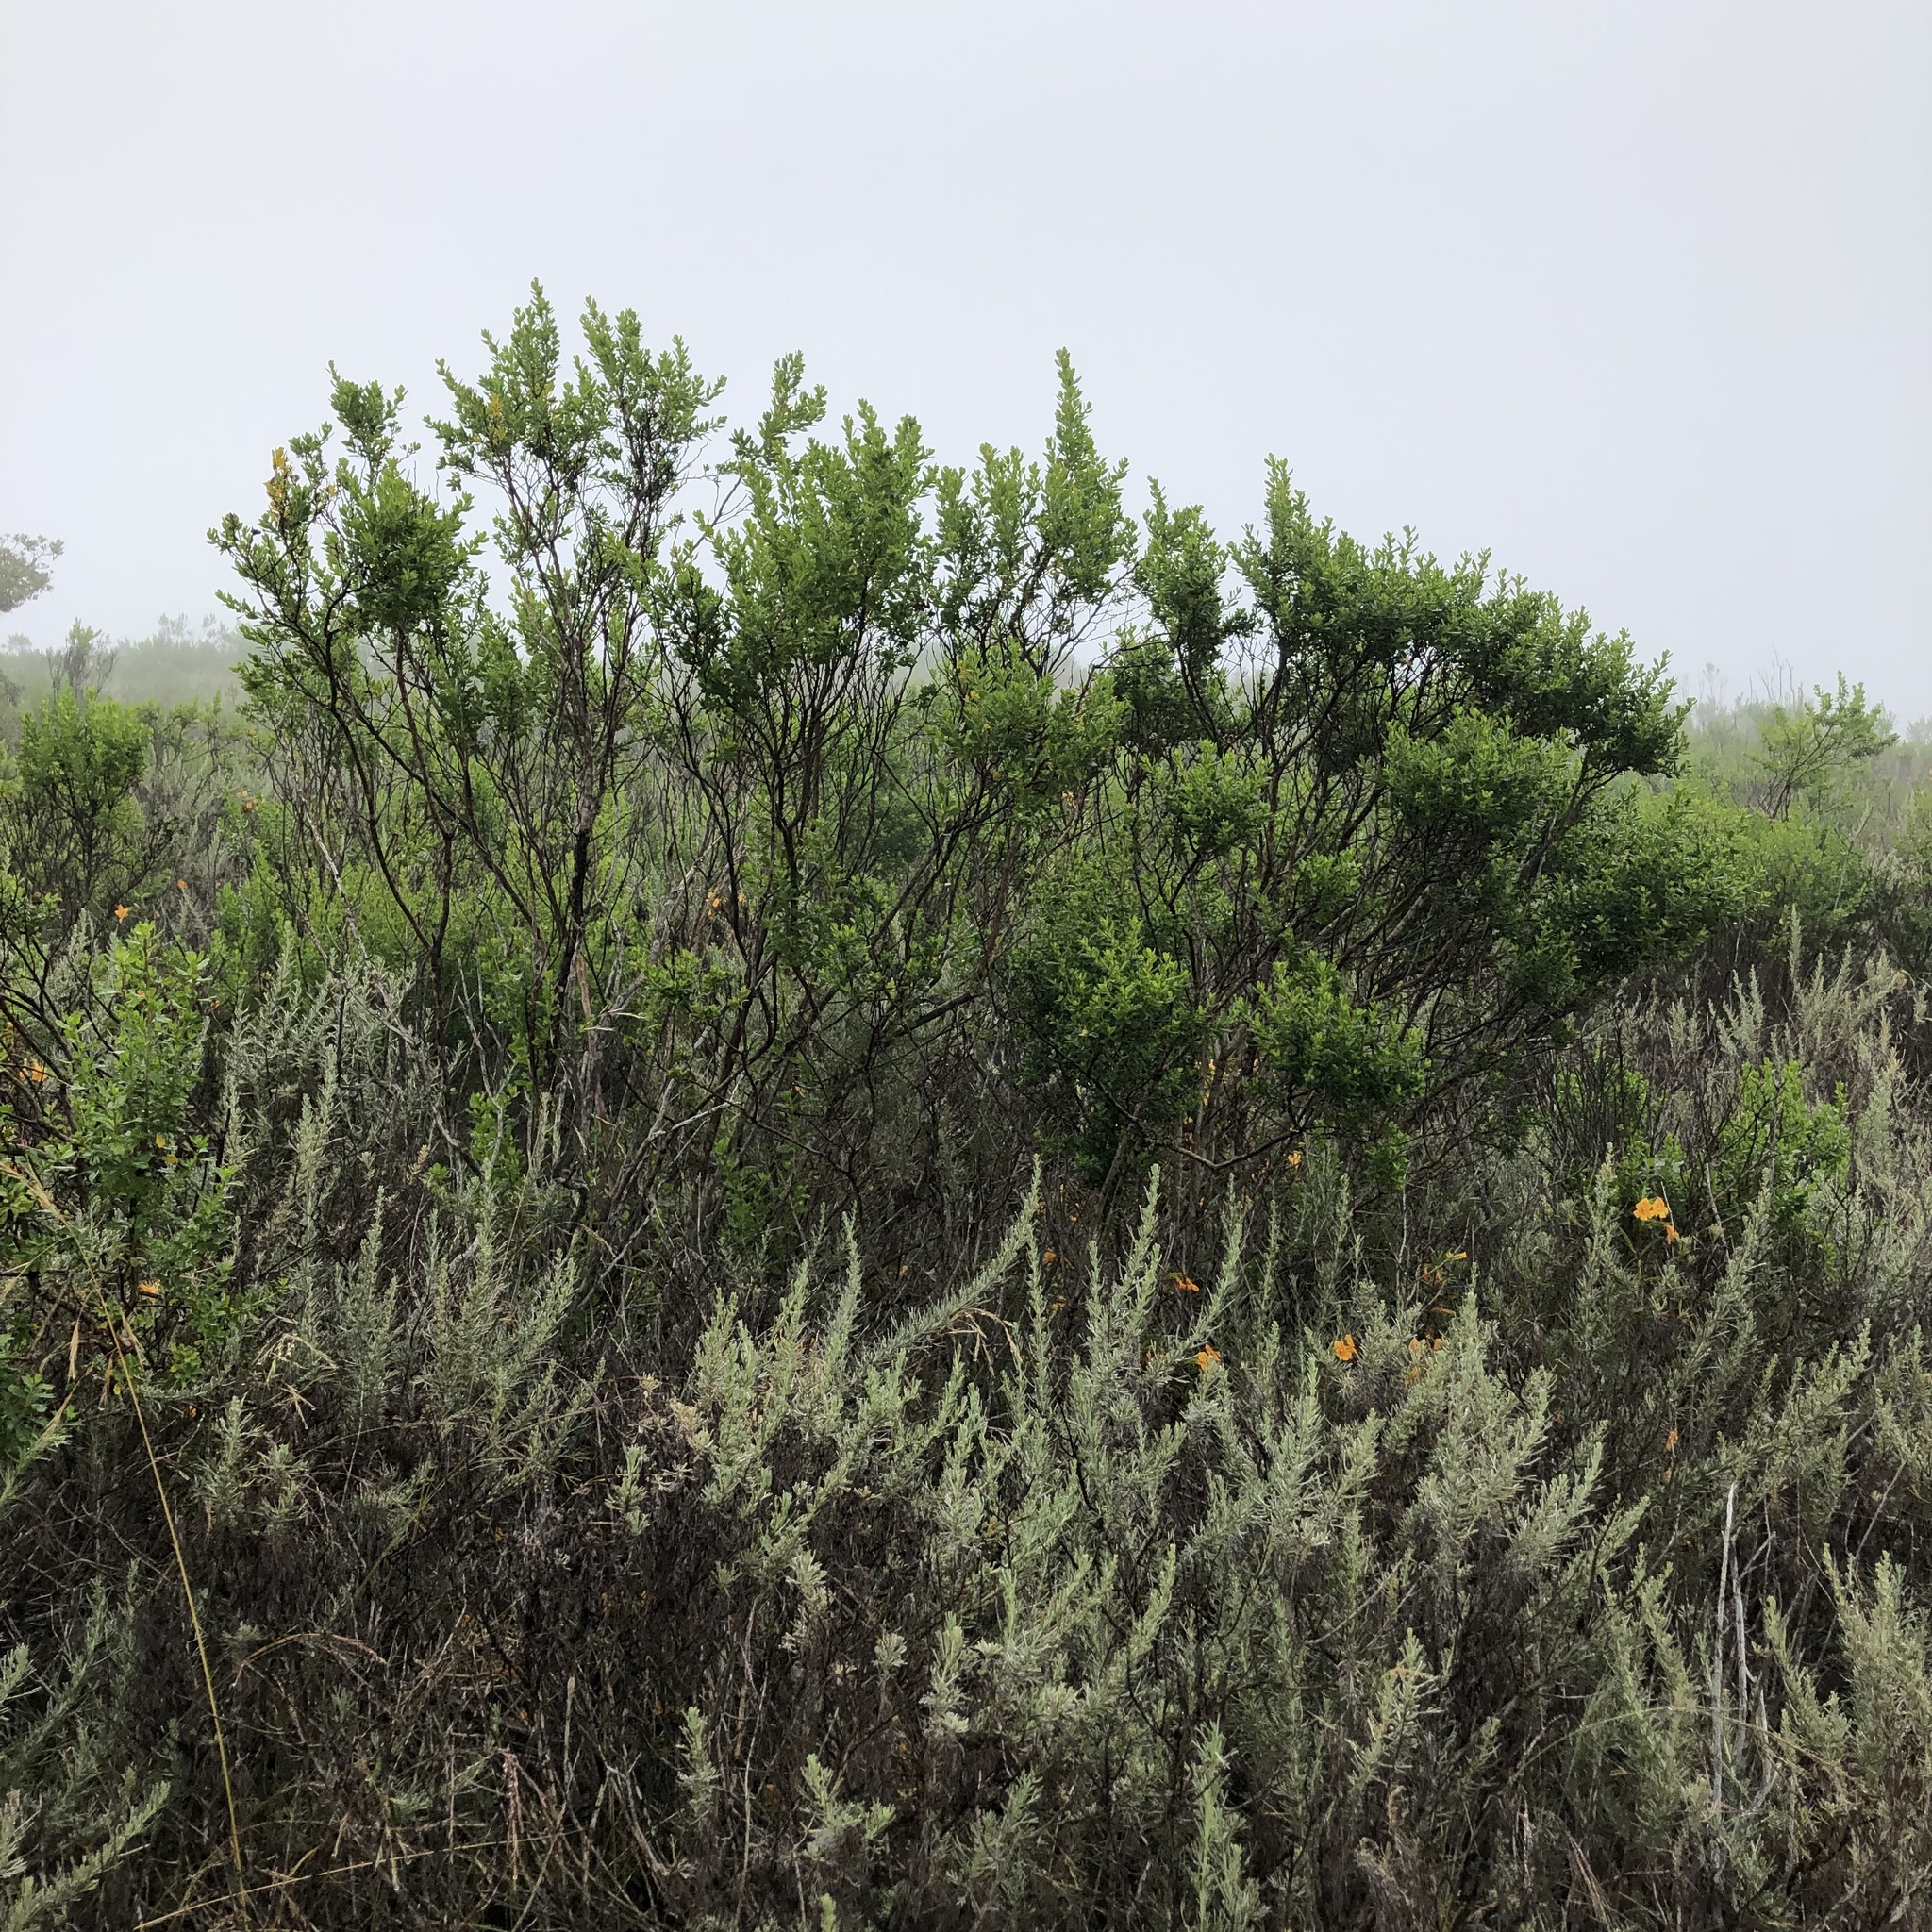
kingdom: Plantae
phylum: Tracheophyta
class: Magnoliopsida
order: Asterales
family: Asteraceae
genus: Baccharis
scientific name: Baccharis pilularis
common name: Coyotebrush
